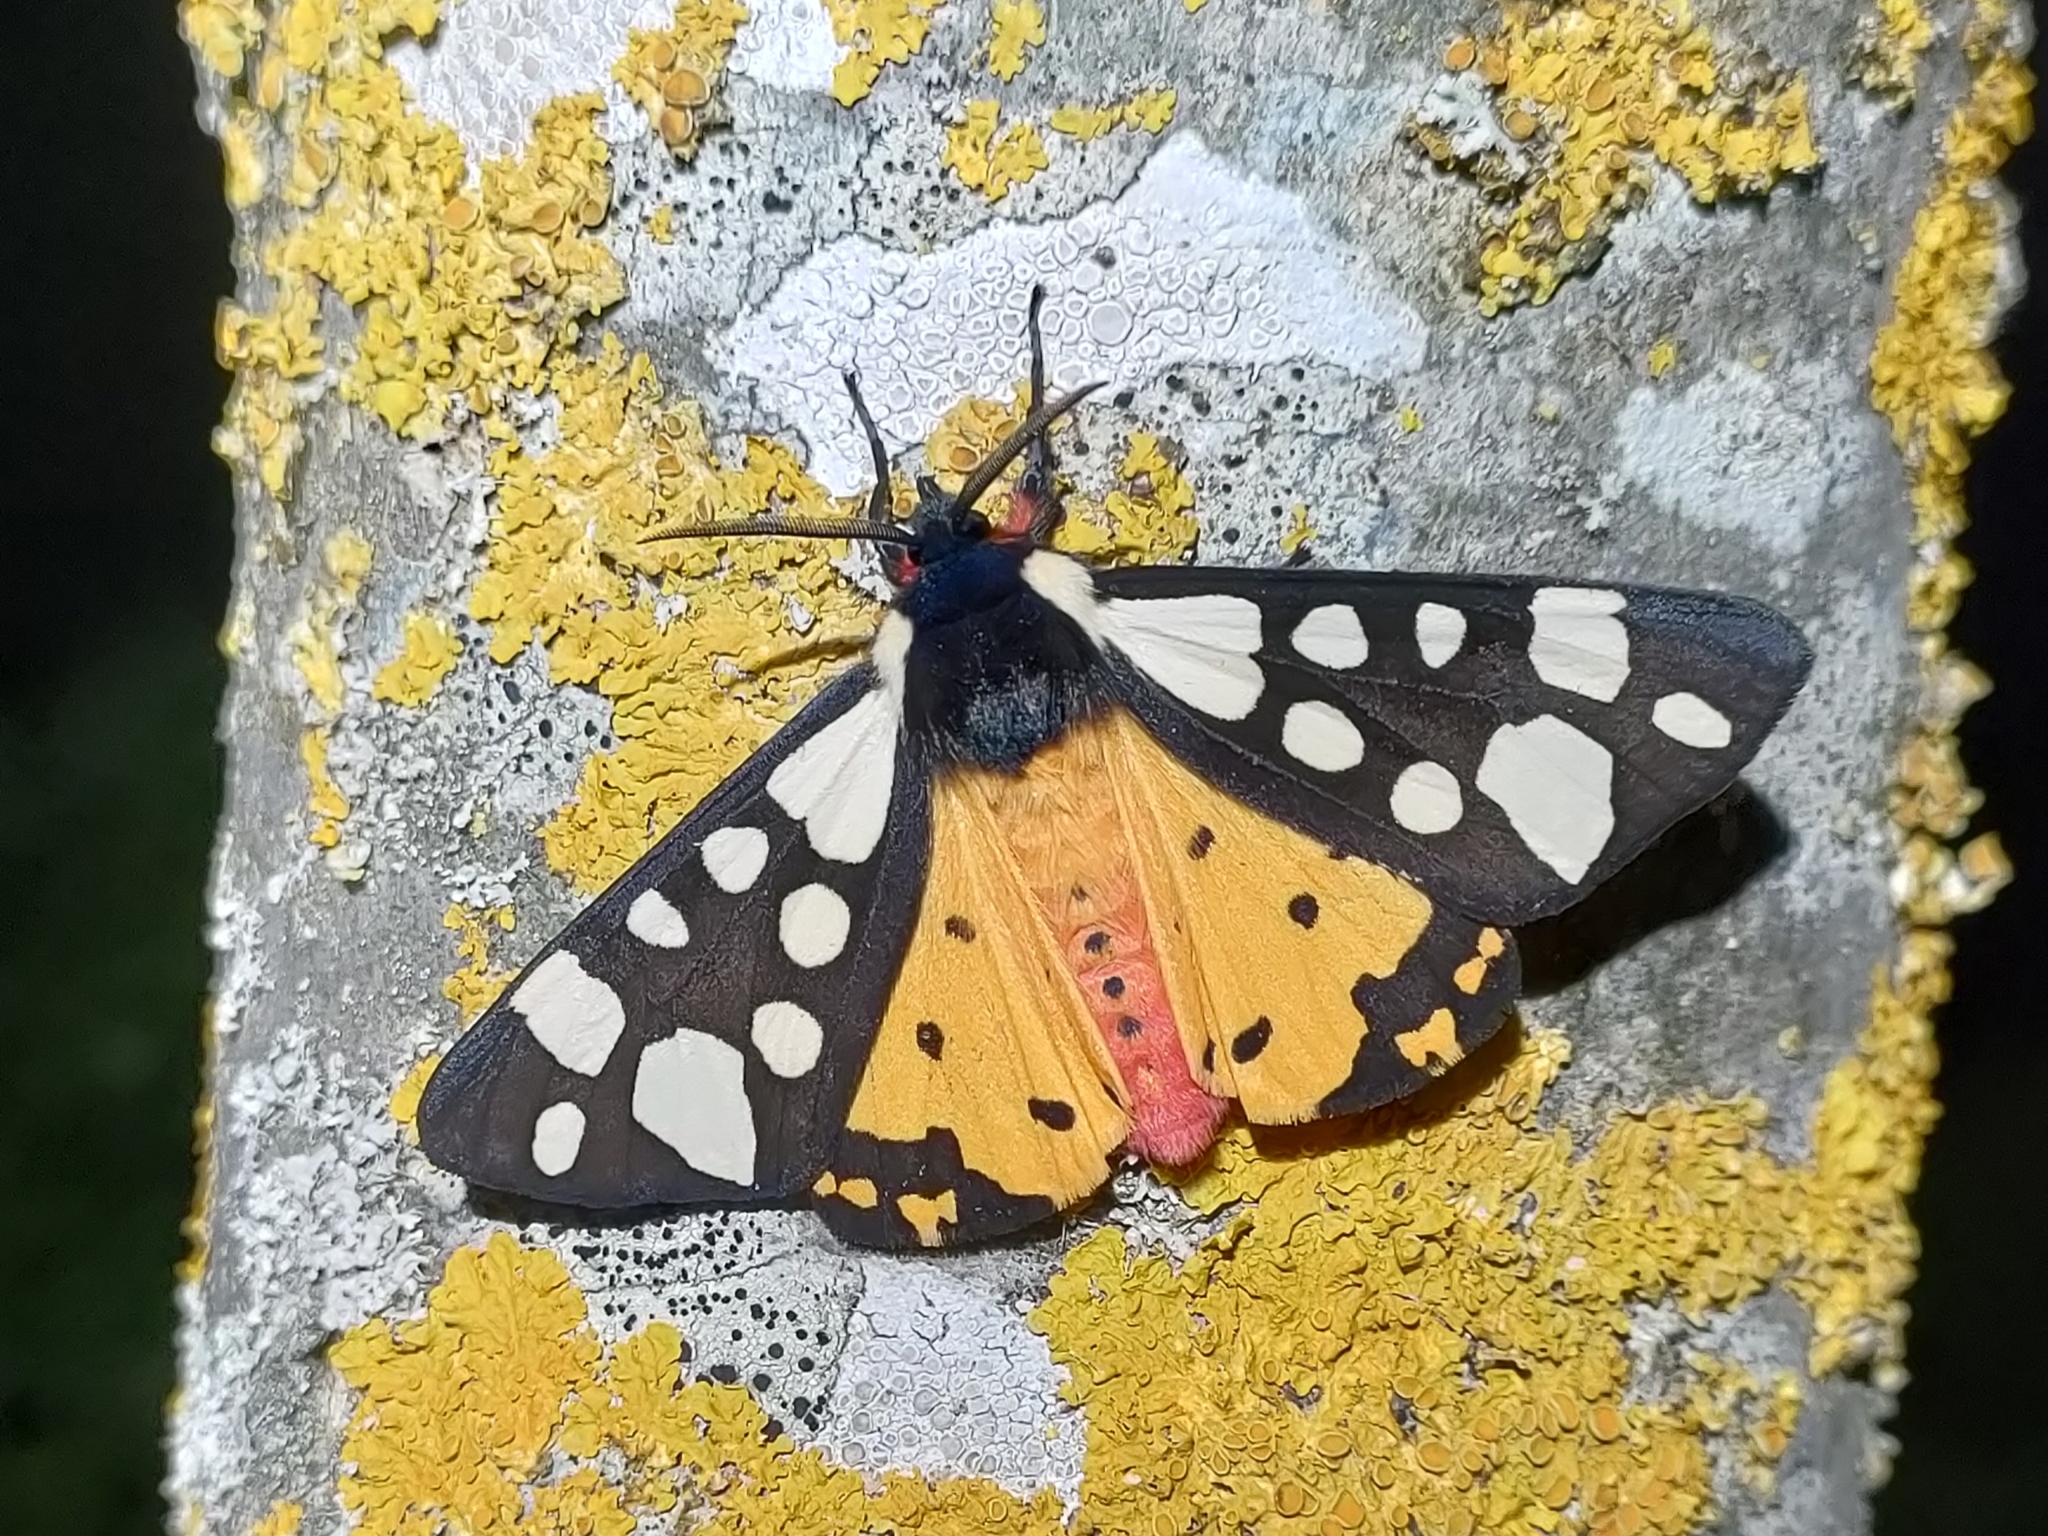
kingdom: Animalia
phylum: Arthropoda
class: Insecta
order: Lepidoptera
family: Erebidae
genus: Epicallia
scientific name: Epicallia villica
